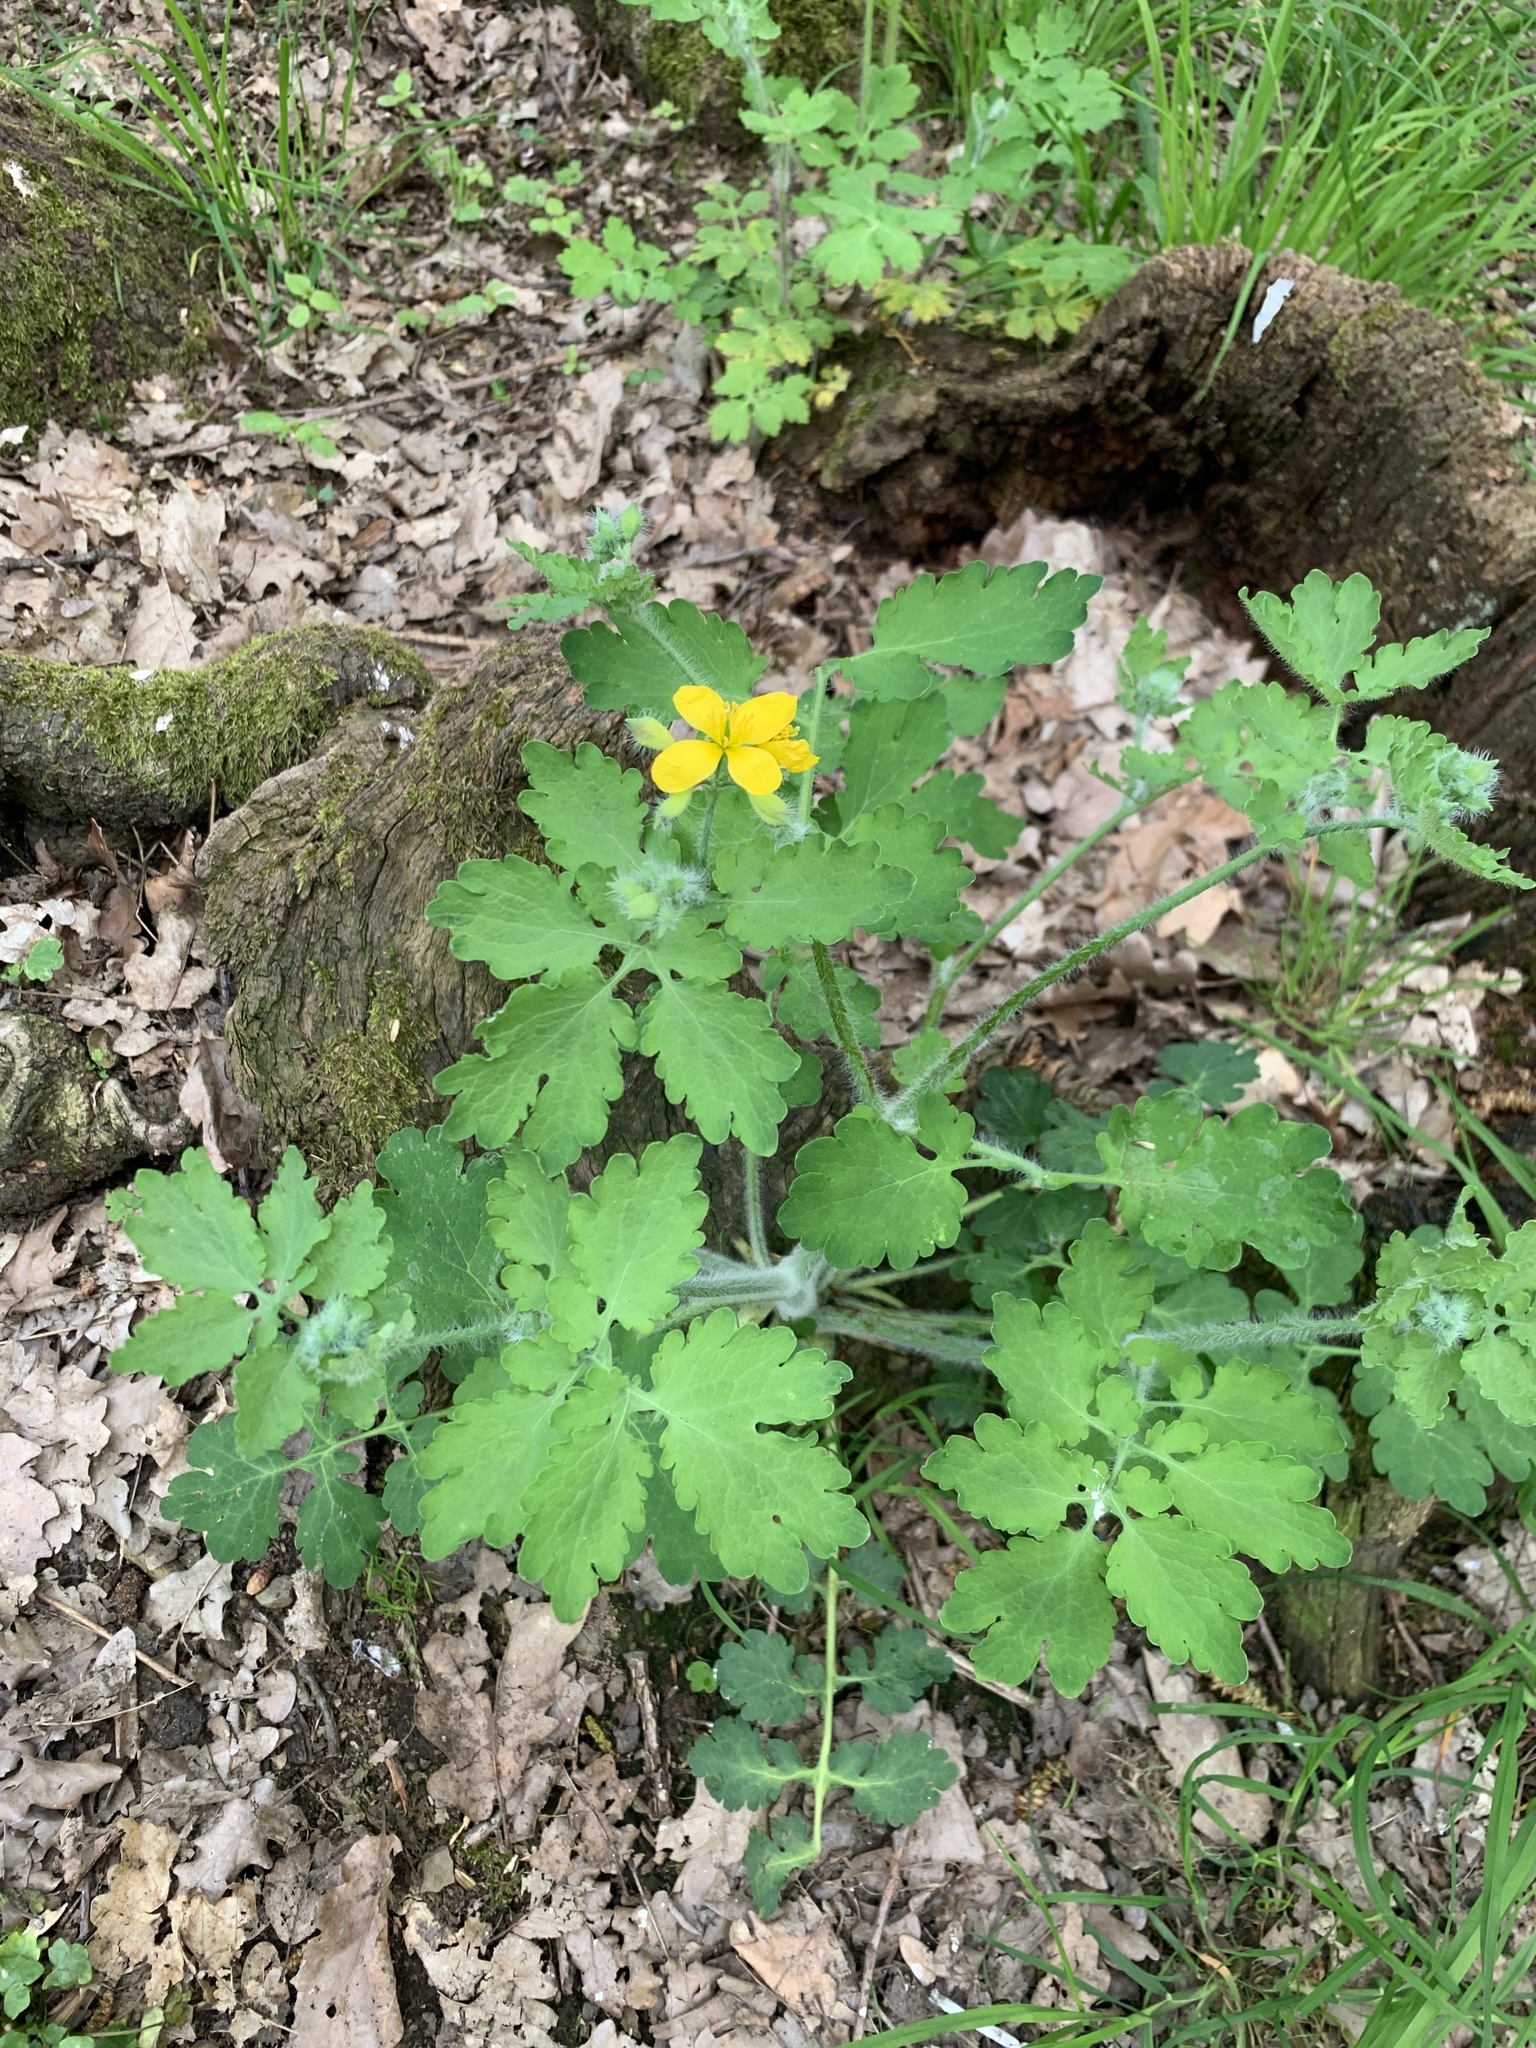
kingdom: Plantae
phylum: Tracheophyta
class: Magnoliopsida
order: Ranunculales
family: Papaveraceae
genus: Chelidonium
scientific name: Chelidonium majus
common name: Greater celandine
